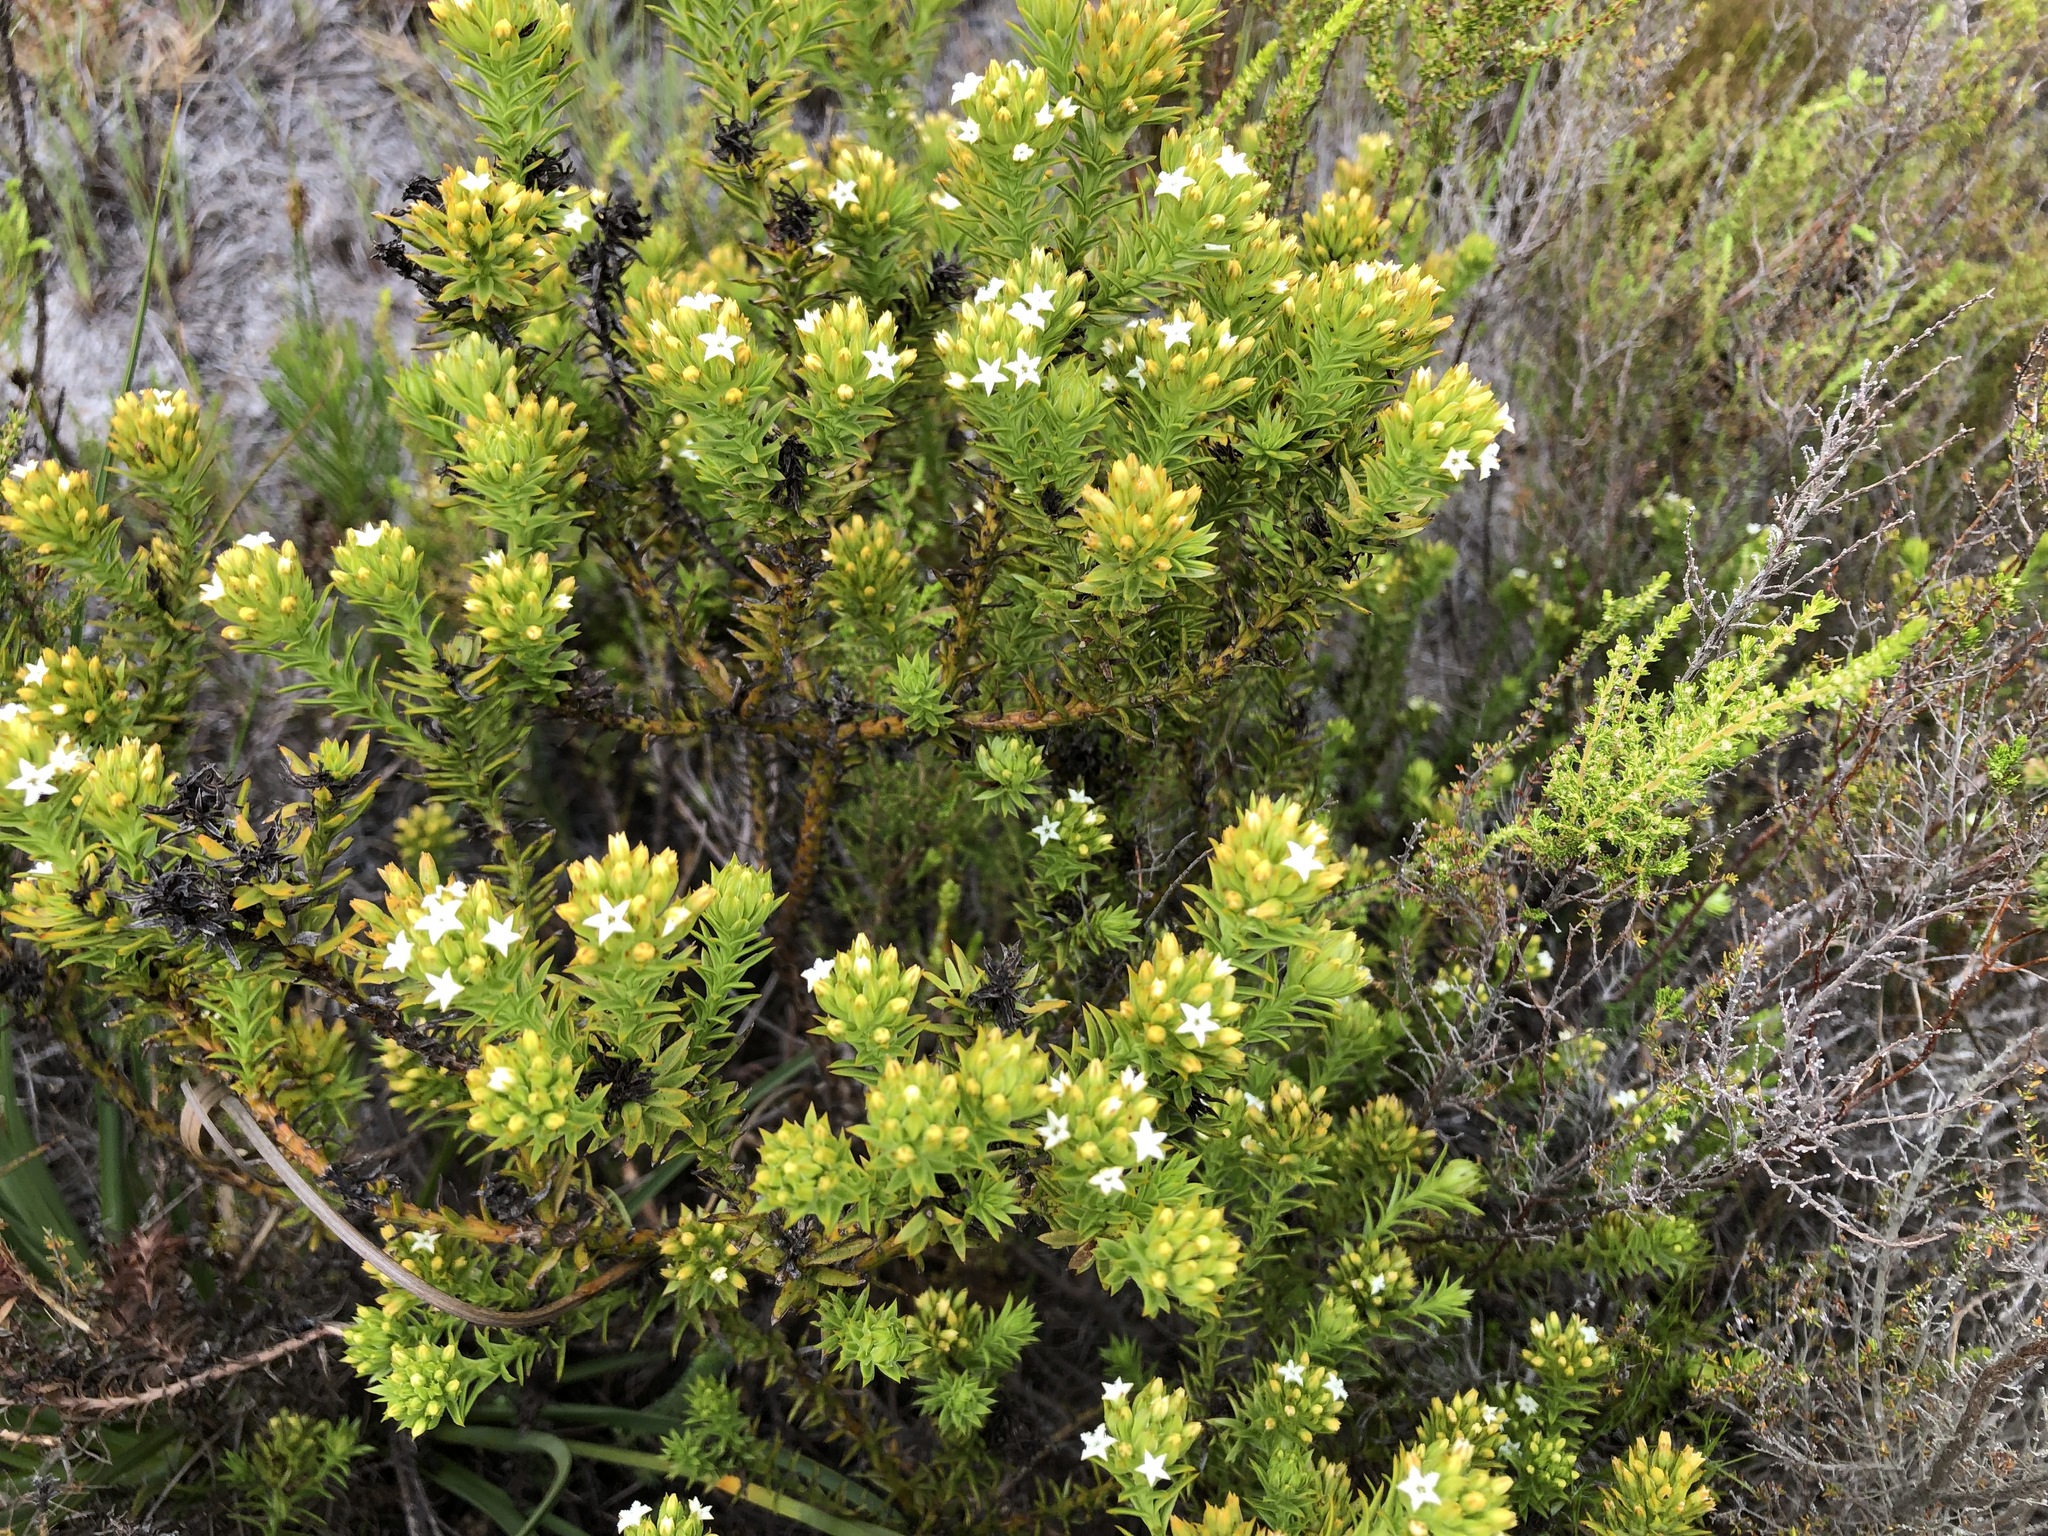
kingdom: Plantae
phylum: Tracheophyta
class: Magnoliopsida
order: Santalales
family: Thesiaceae
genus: Thesium
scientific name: Thesium viridifolium
